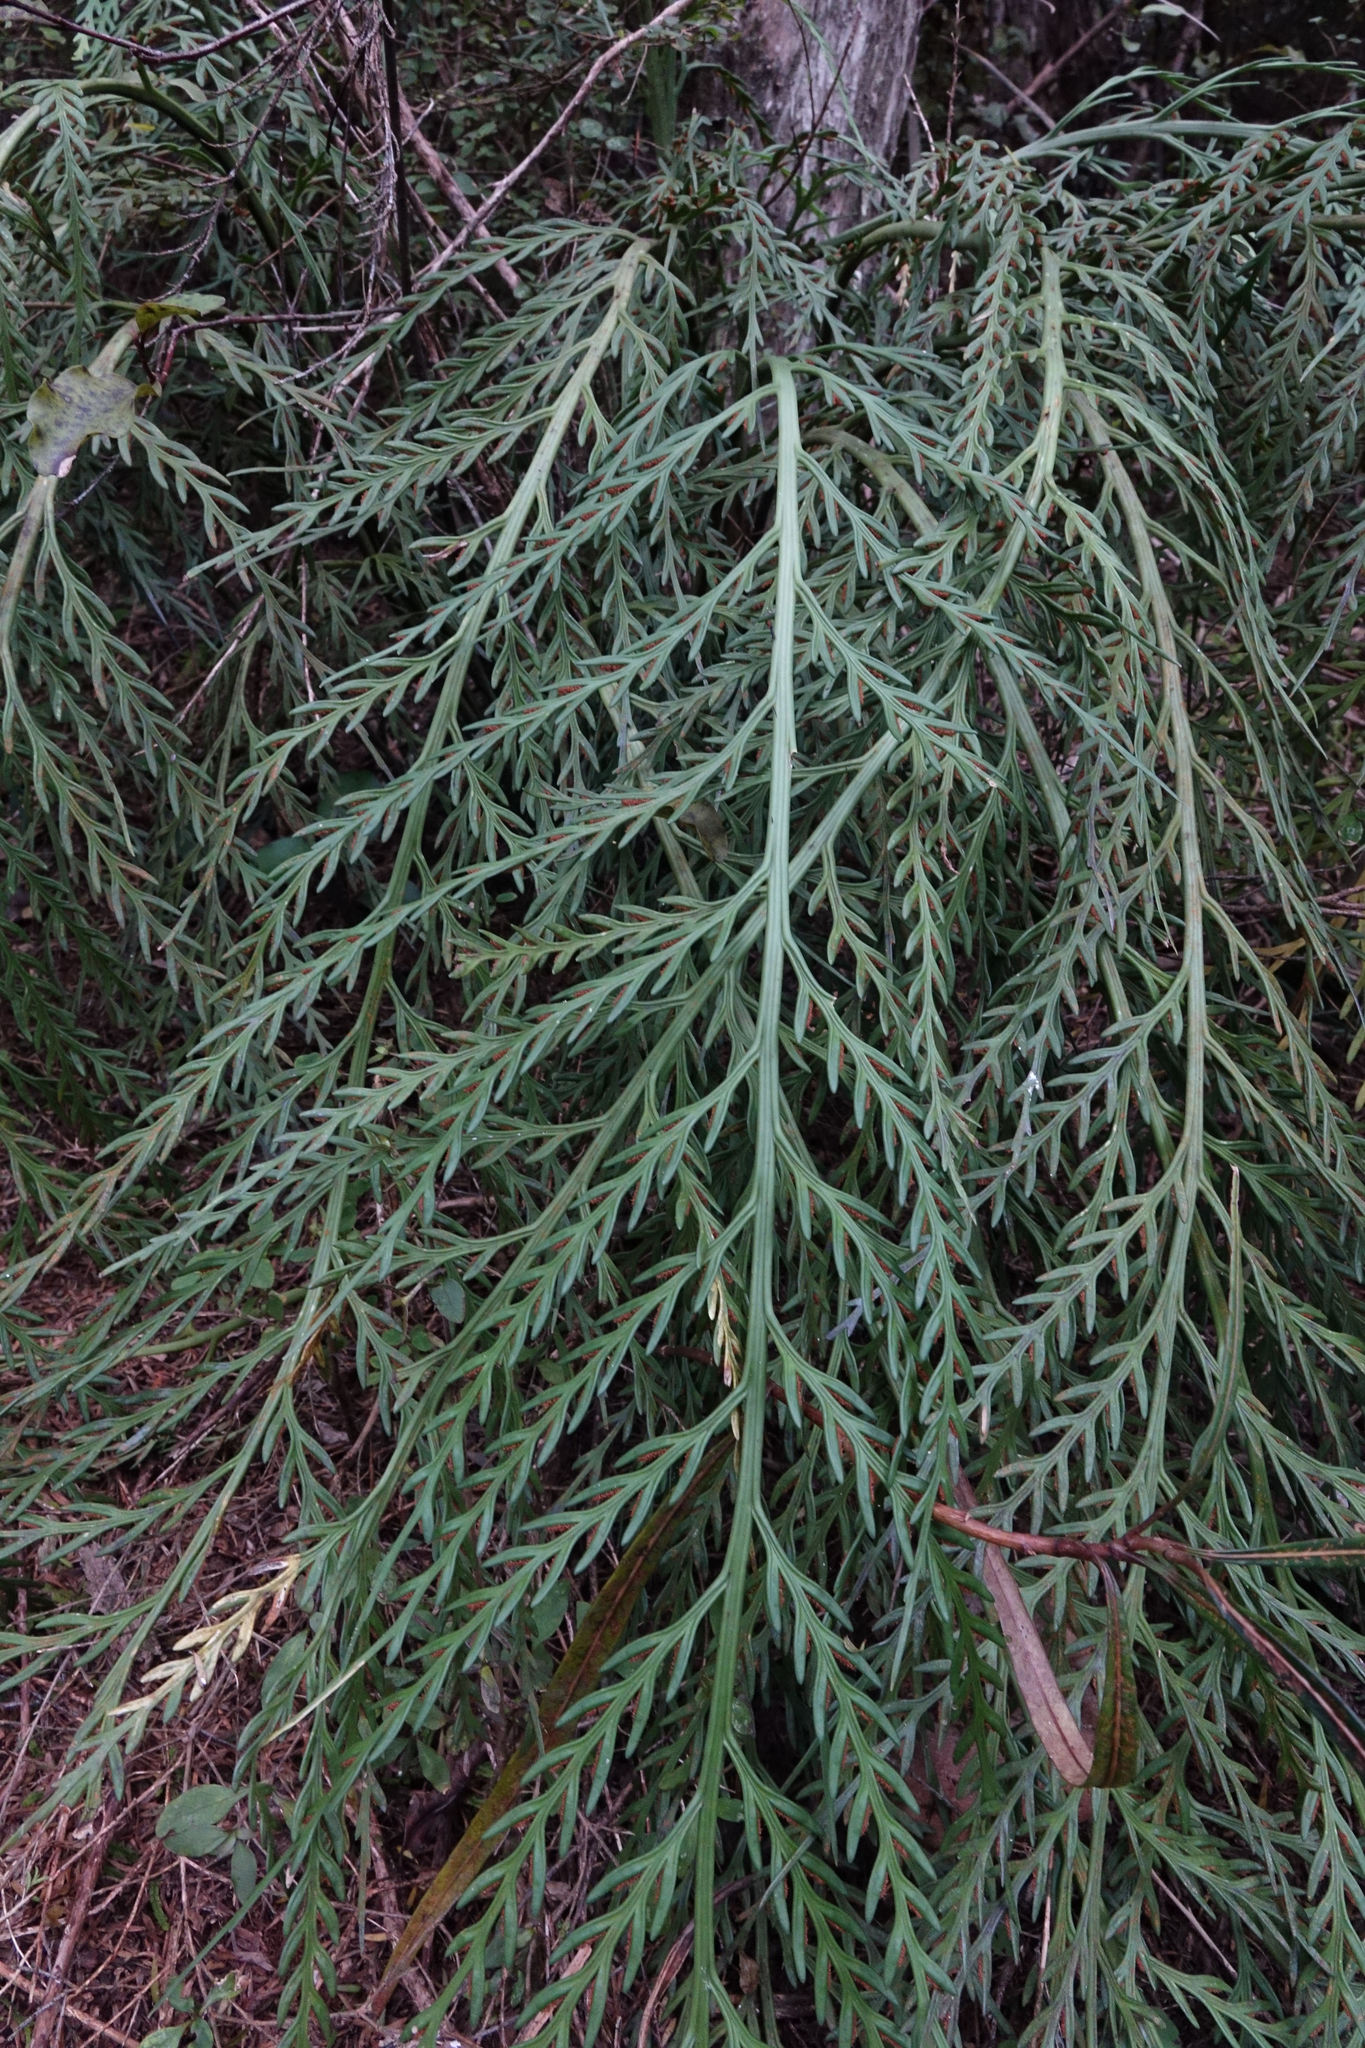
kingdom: Plantae
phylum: Tracheophyta
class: Polypodiopsida
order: Polypodiales
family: Aspleniaceae
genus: Asplenium
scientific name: Asplenium flaccidum
